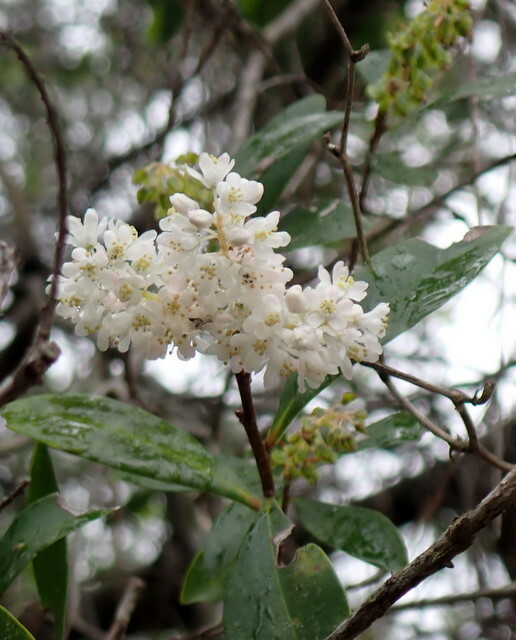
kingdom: Plantae
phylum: Tracheophyta
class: Magnoliopsida
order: Ericales
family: Cyrillaceae
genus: Cliftonia
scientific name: Cliftonia monophylla
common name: Titi
